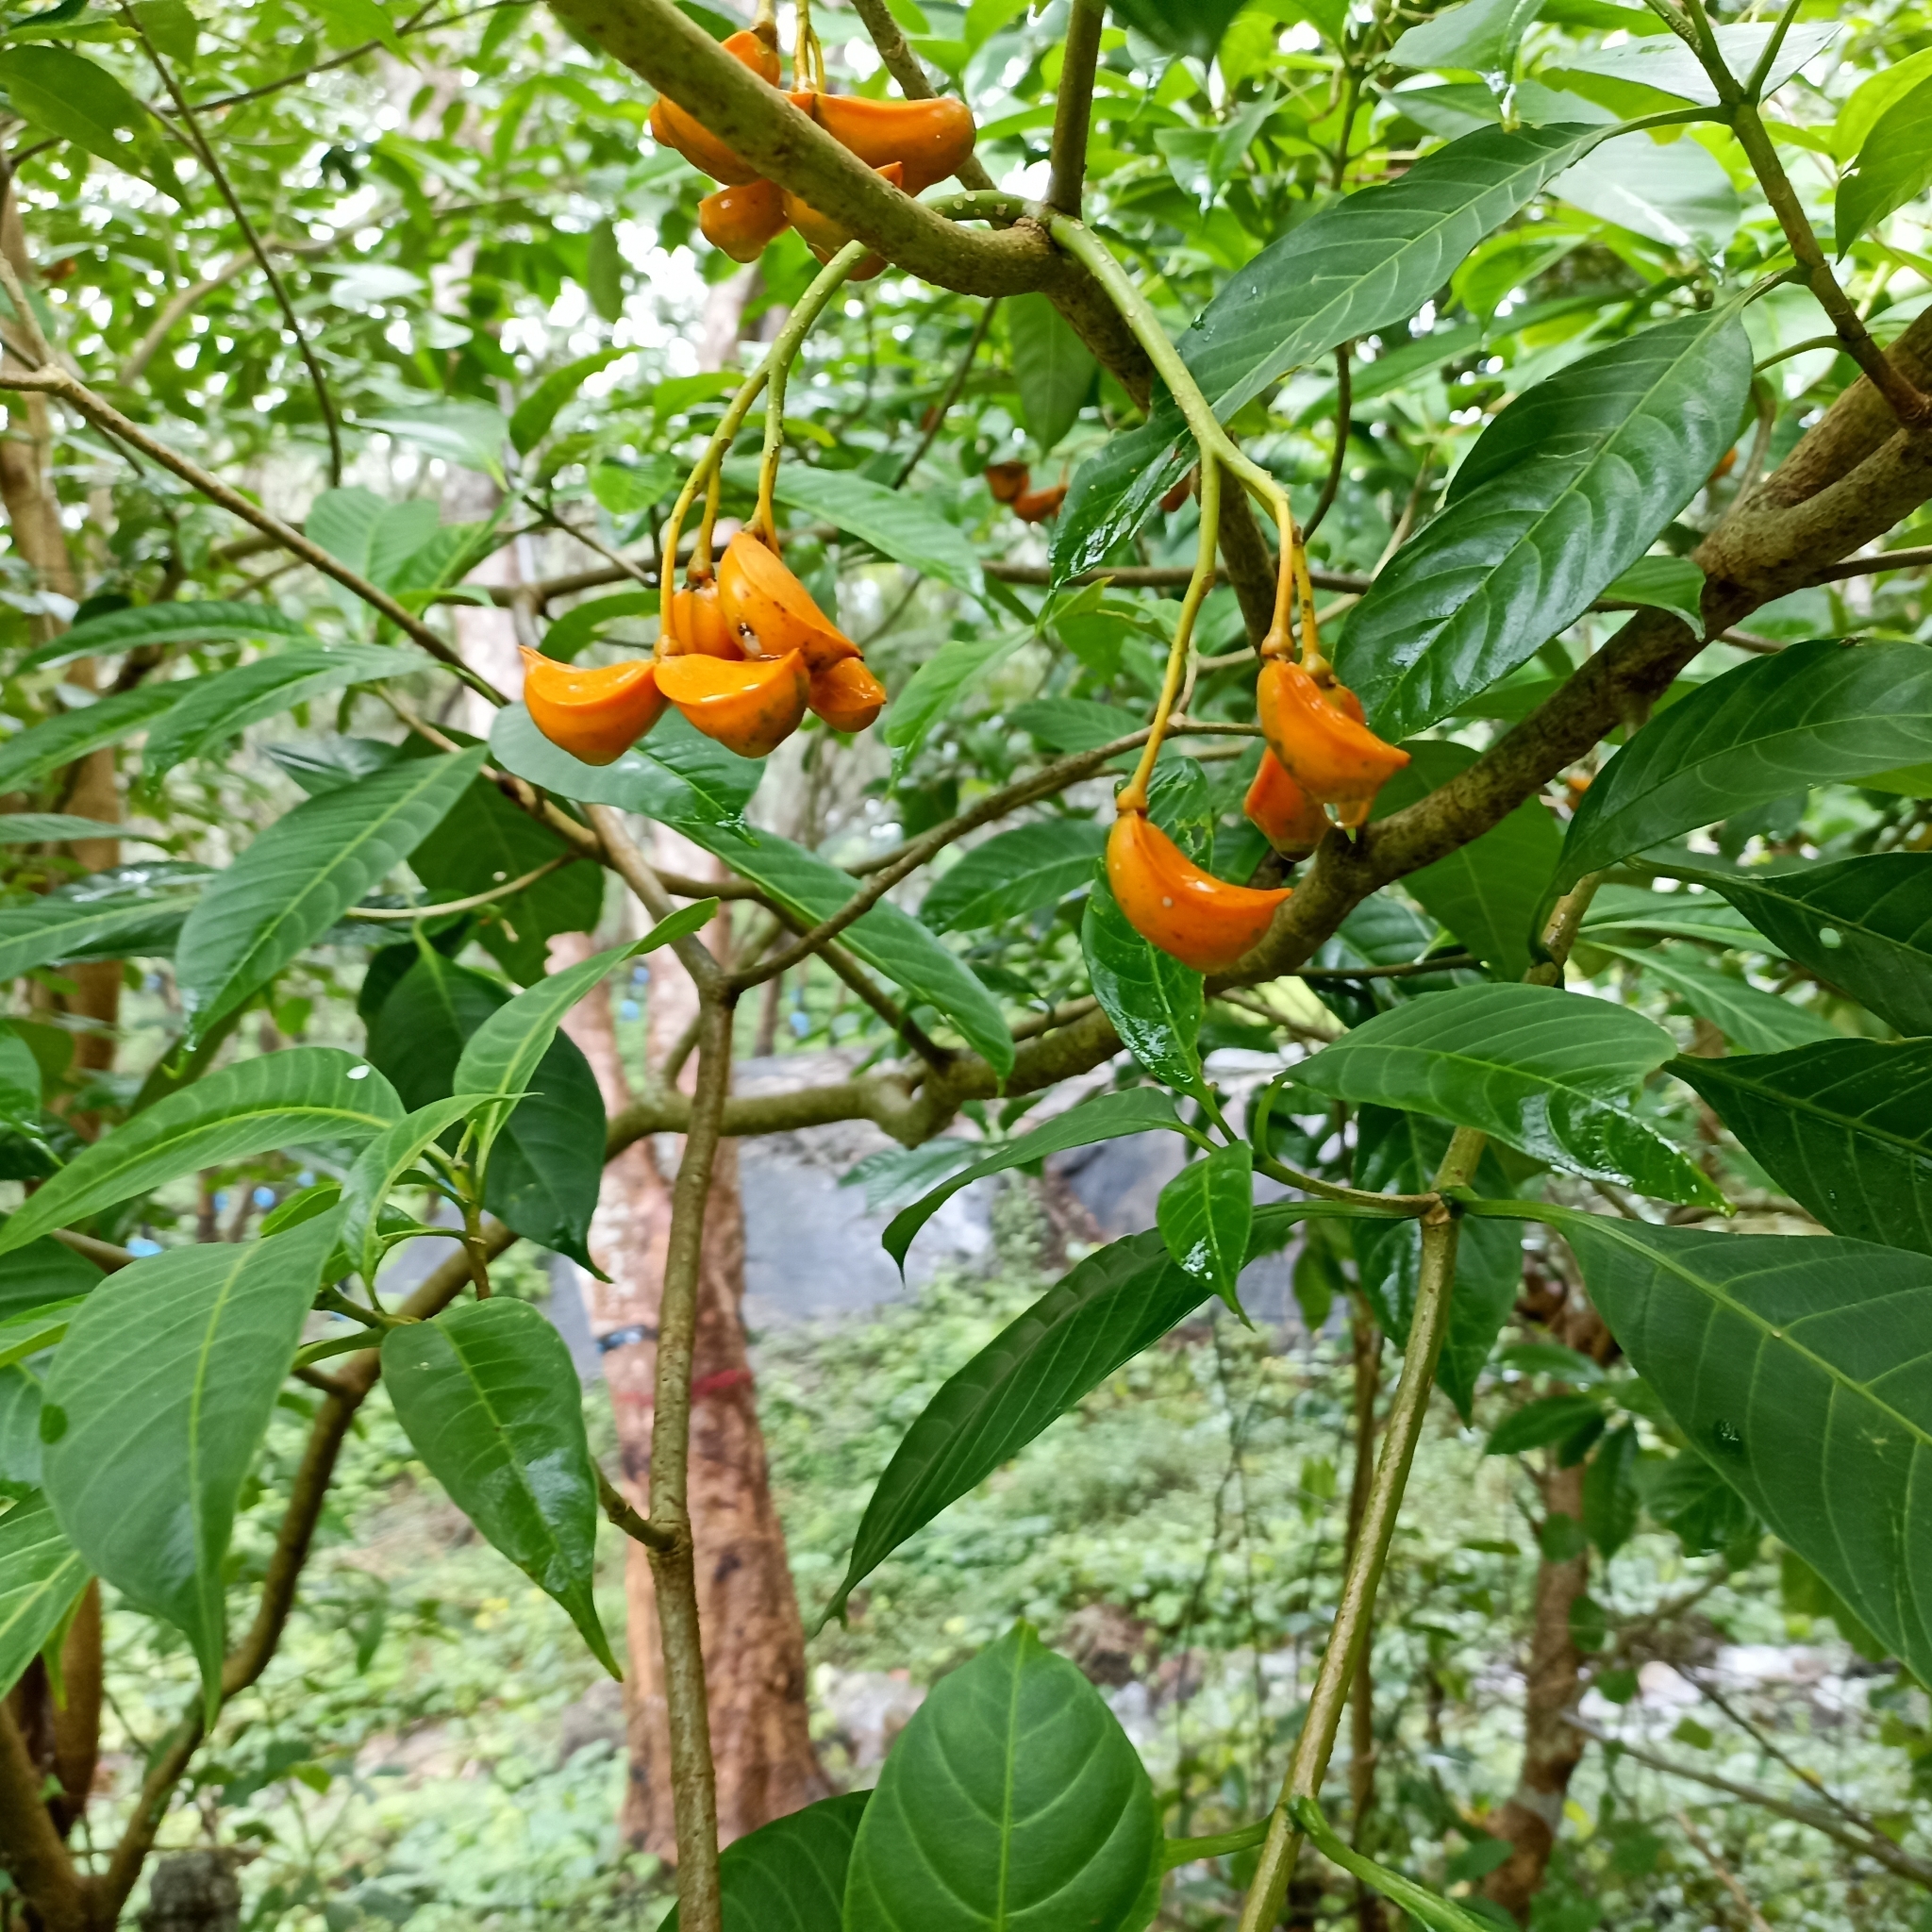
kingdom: Plantae
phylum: Tracheophyta
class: Magnoliopsida
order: Gentianales
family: Apocynaceae
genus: Tabernaemontana
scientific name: Tabernaemontana alternifolia
